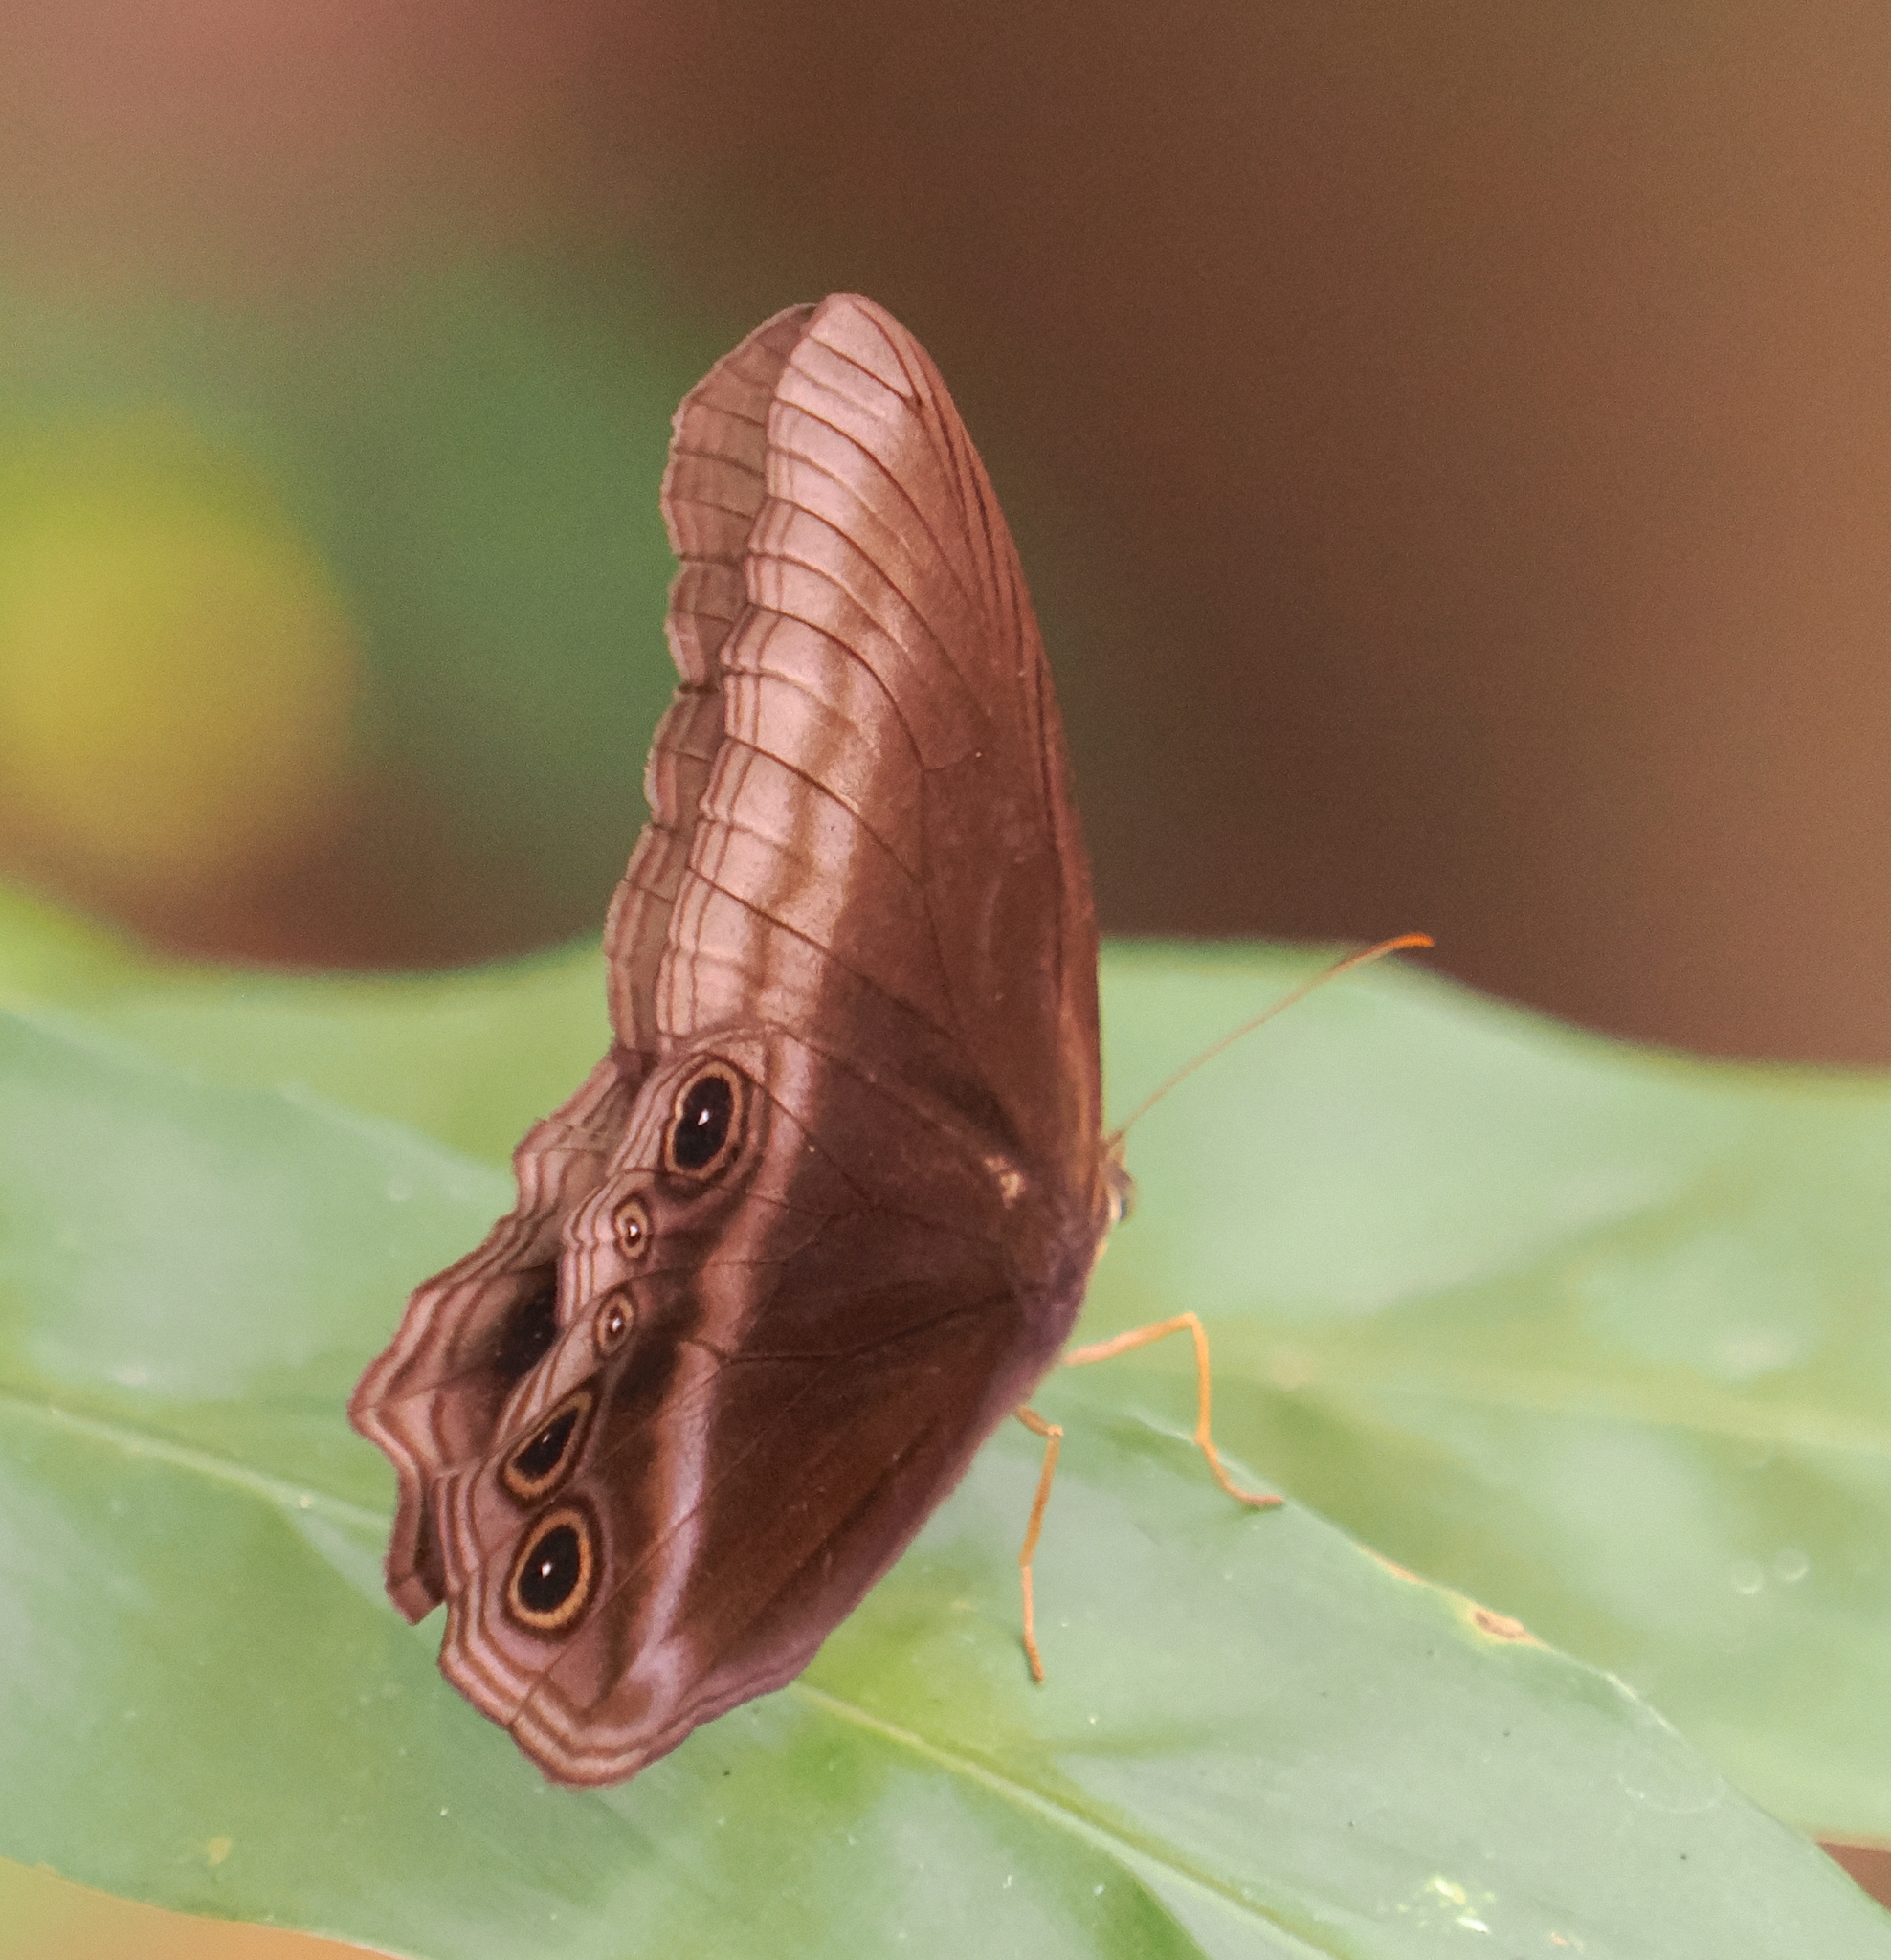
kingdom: Animalia
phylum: Arthropoda
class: Insecta
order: Lepidoptera
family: Nymphalidae
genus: Coelites
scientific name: Coelites nothis
